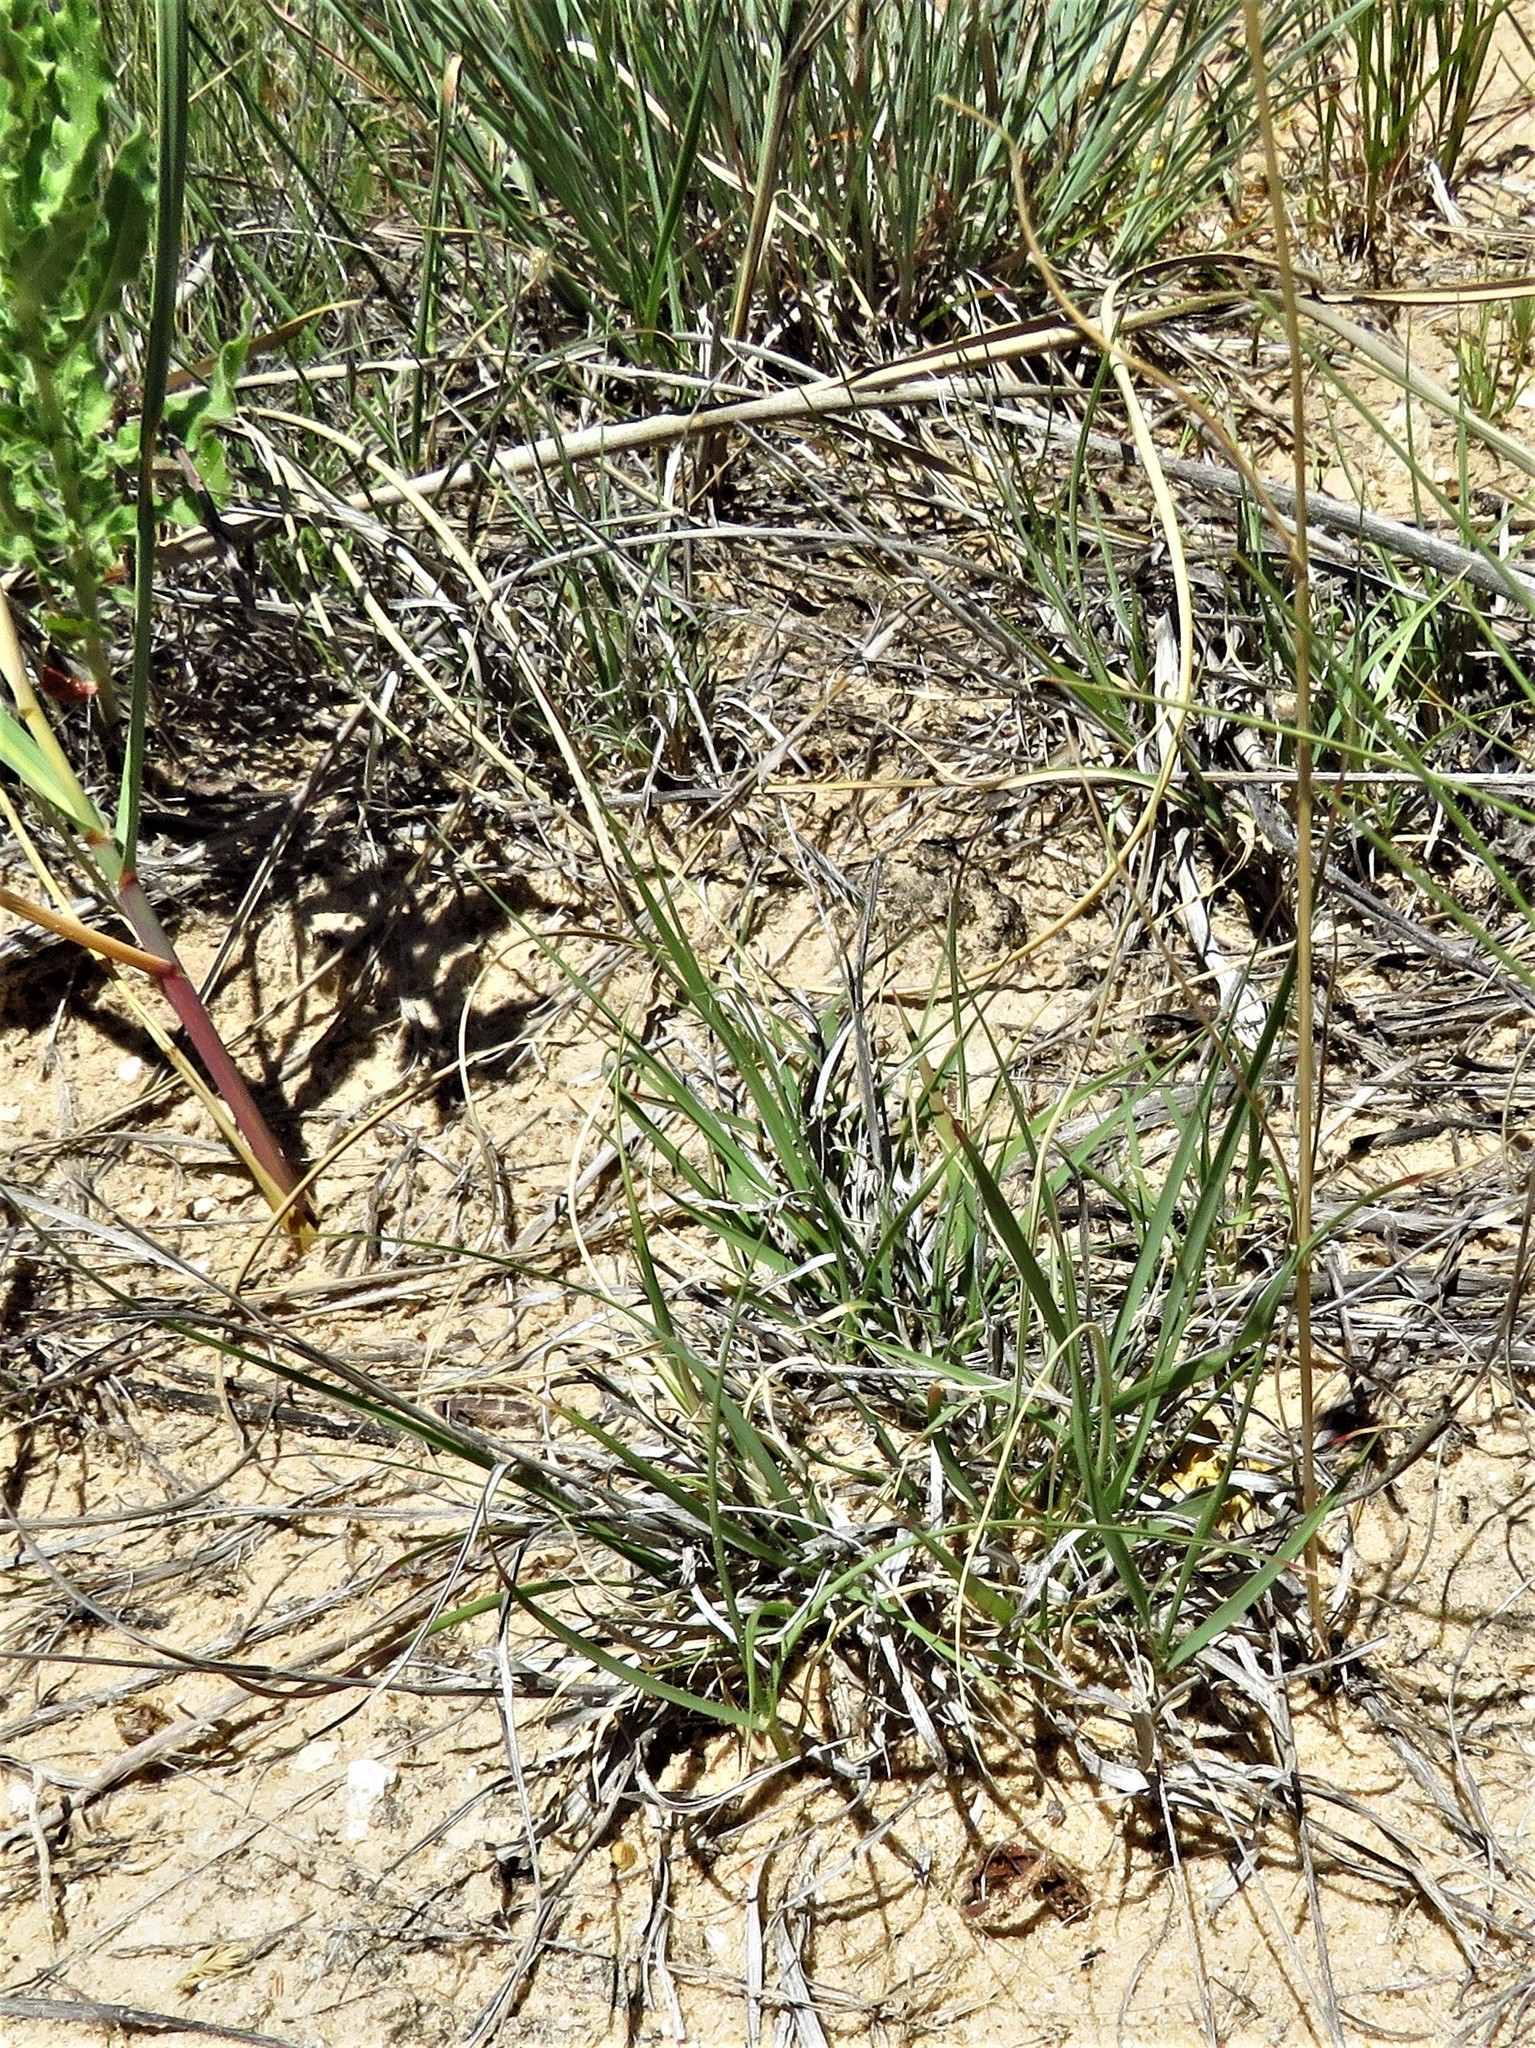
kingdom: Plantae
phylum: Tracheophyta
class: Liliopsida
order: Poales
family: Poaceae
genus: Festuca
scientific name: Festuca octoflora
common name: Sixweeks grass
